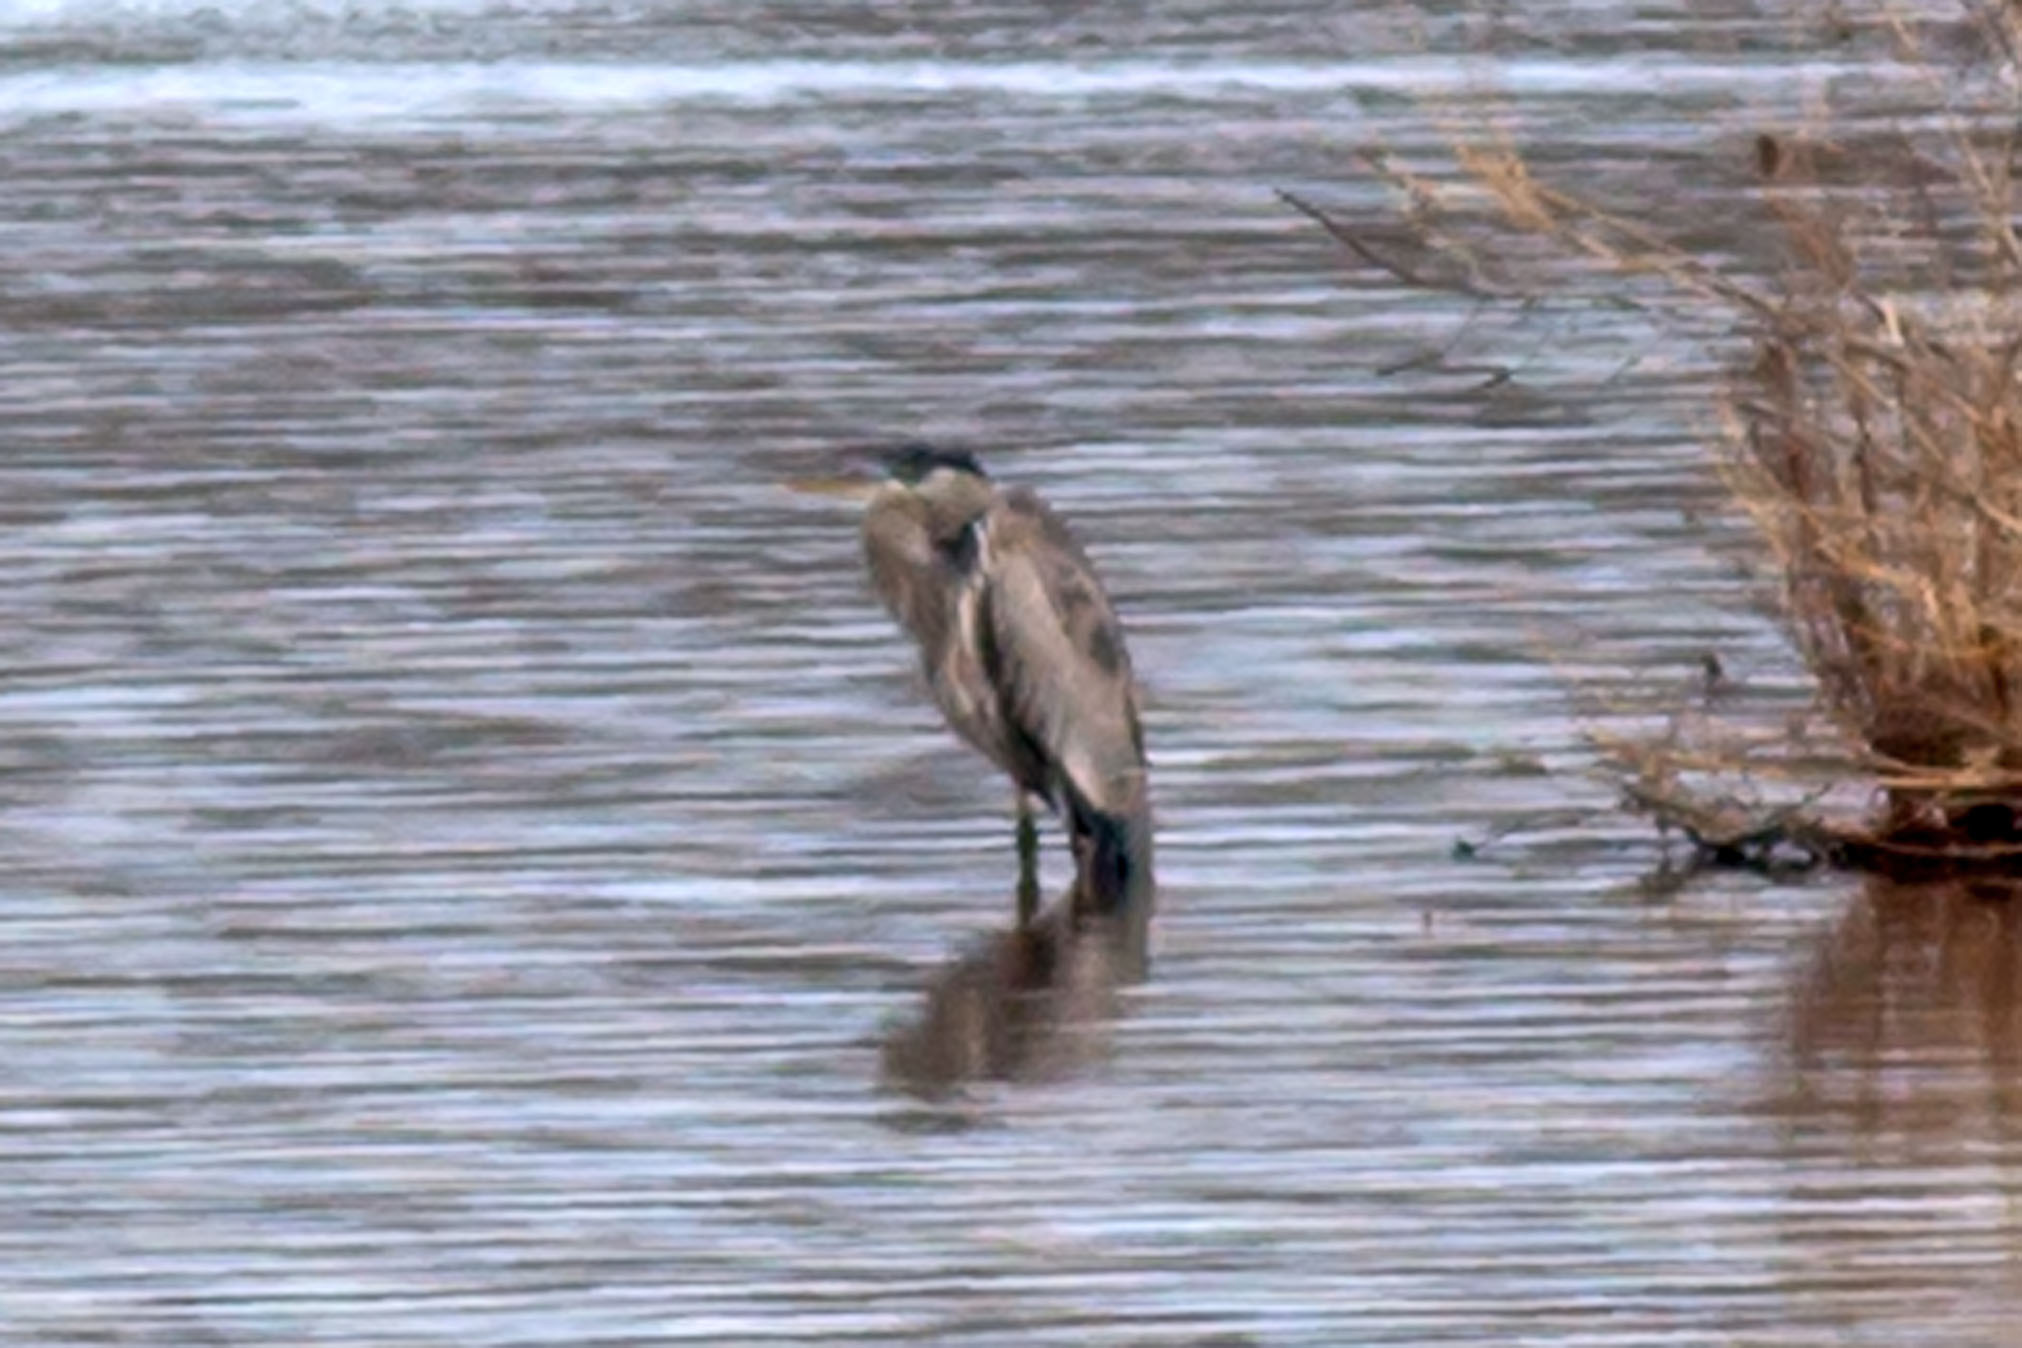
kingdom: Animalia
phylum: Chordata
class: Aves
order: Pelecaniformes
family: Ardeidae
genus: Ardea
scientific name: Ardea herodias
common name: Great blue heron
